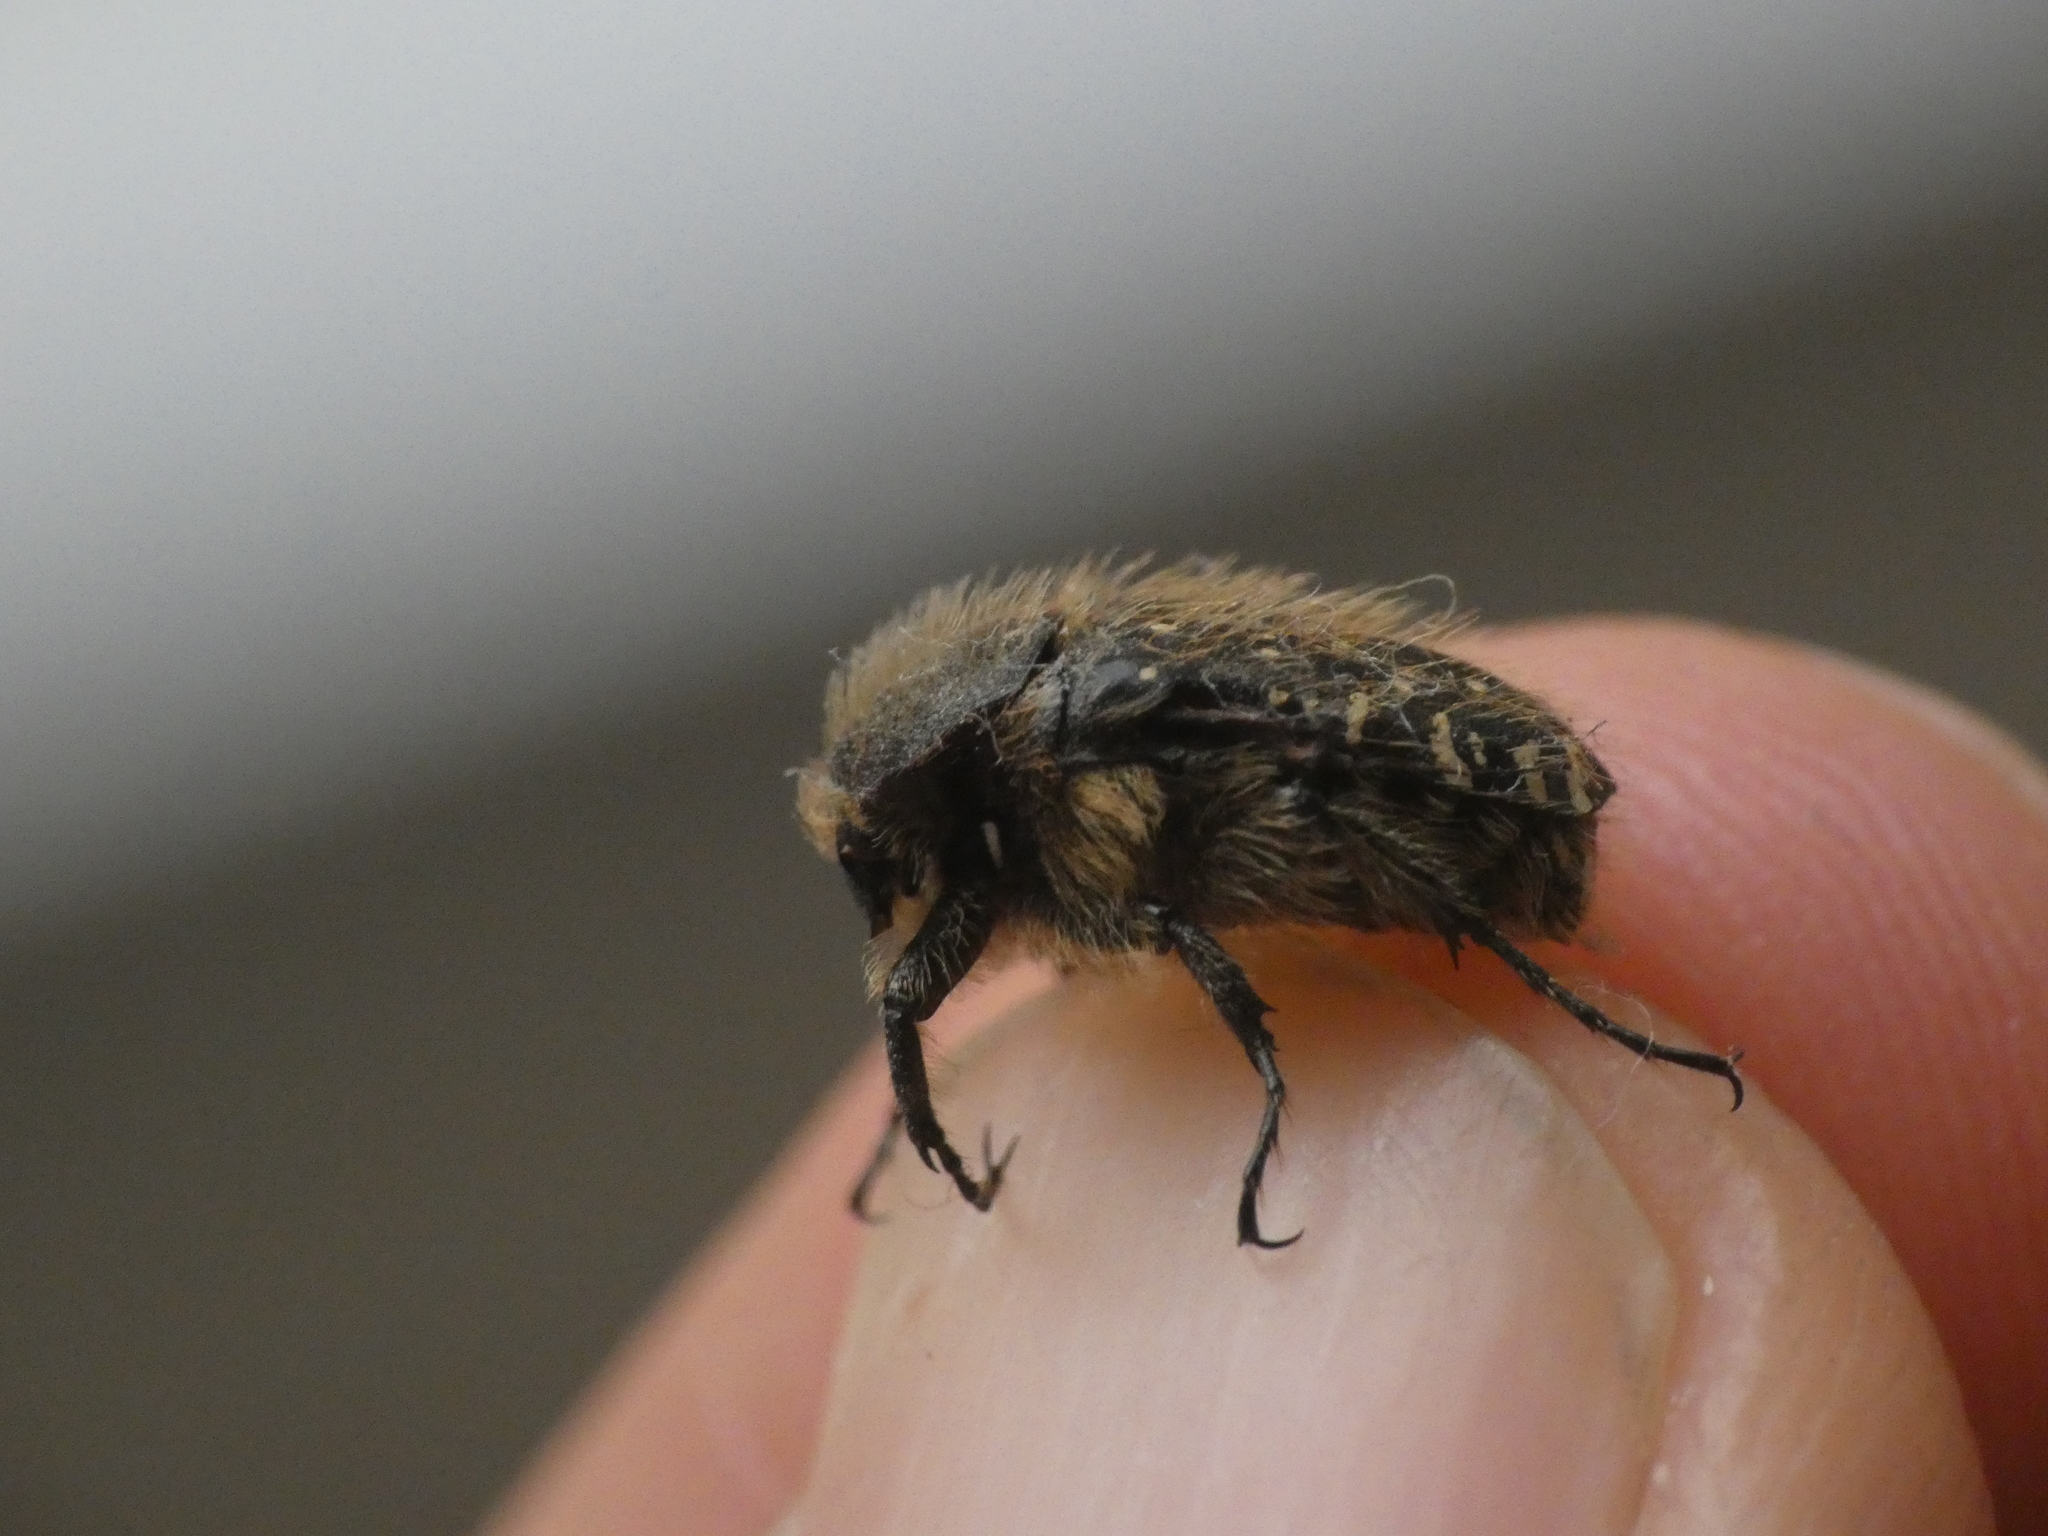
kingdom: Animalia
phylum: Arthropoda
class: Insecta
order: Coleoptera
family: Scarabaeidae
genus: Oxythyrea
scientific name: Oxythyrea funesta
